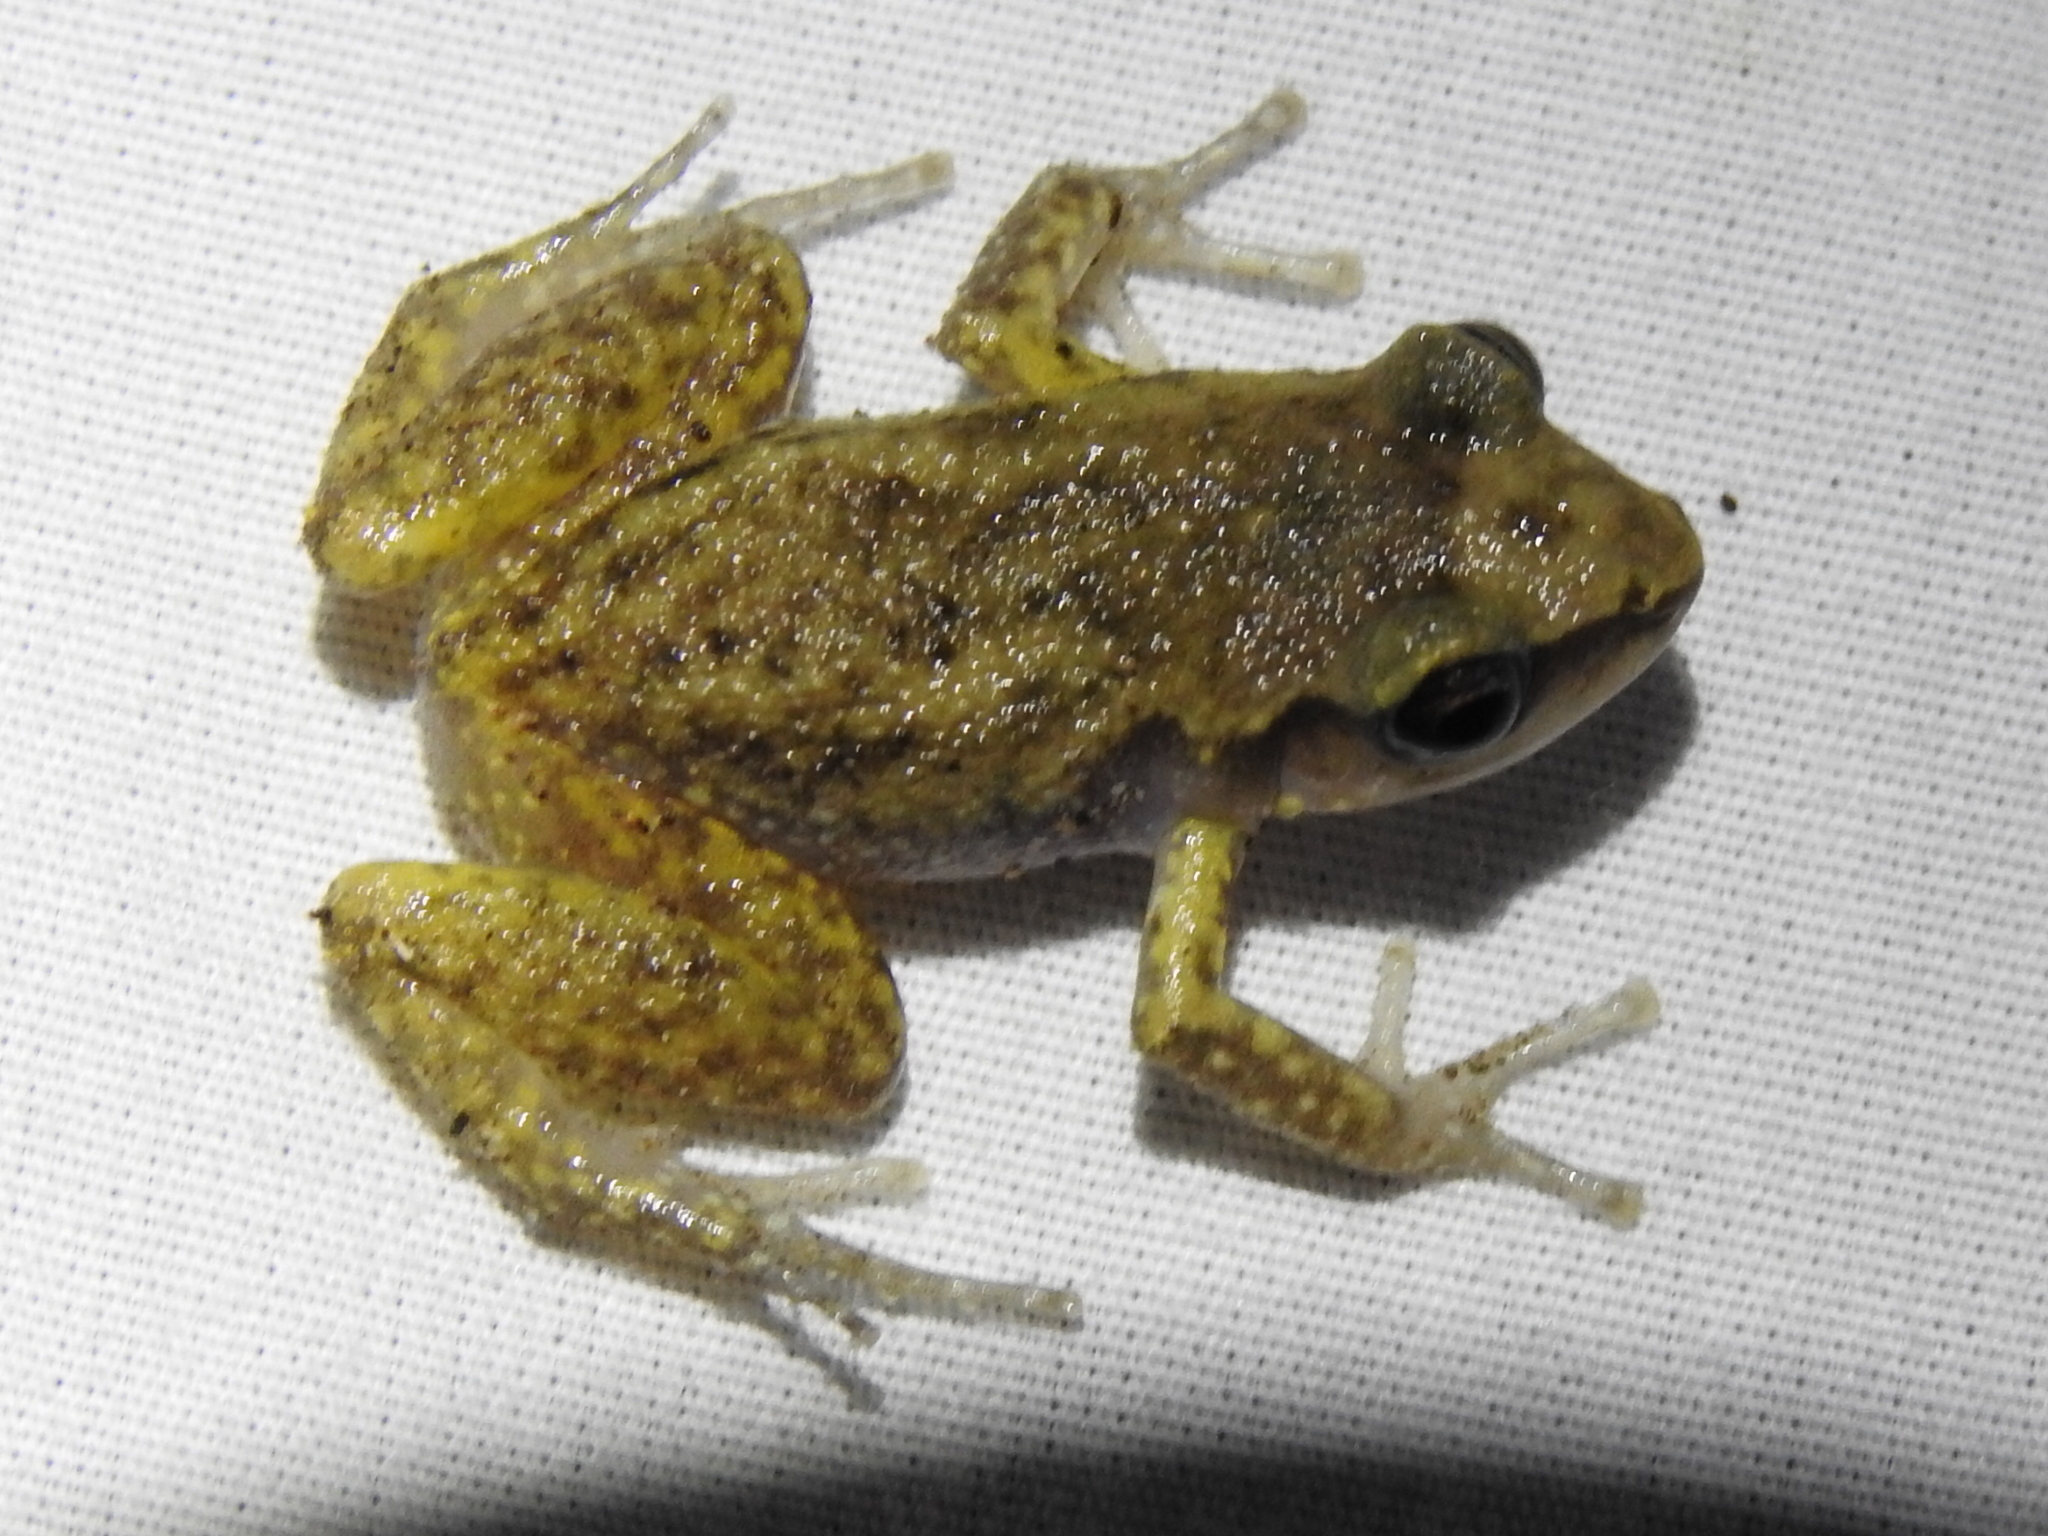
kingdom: Animalia
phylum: Chordata
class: Amphibia
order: Anura
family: Eleutherodactylidae
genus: Eleutherodactylus
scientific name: Eleutherodactylus campi
